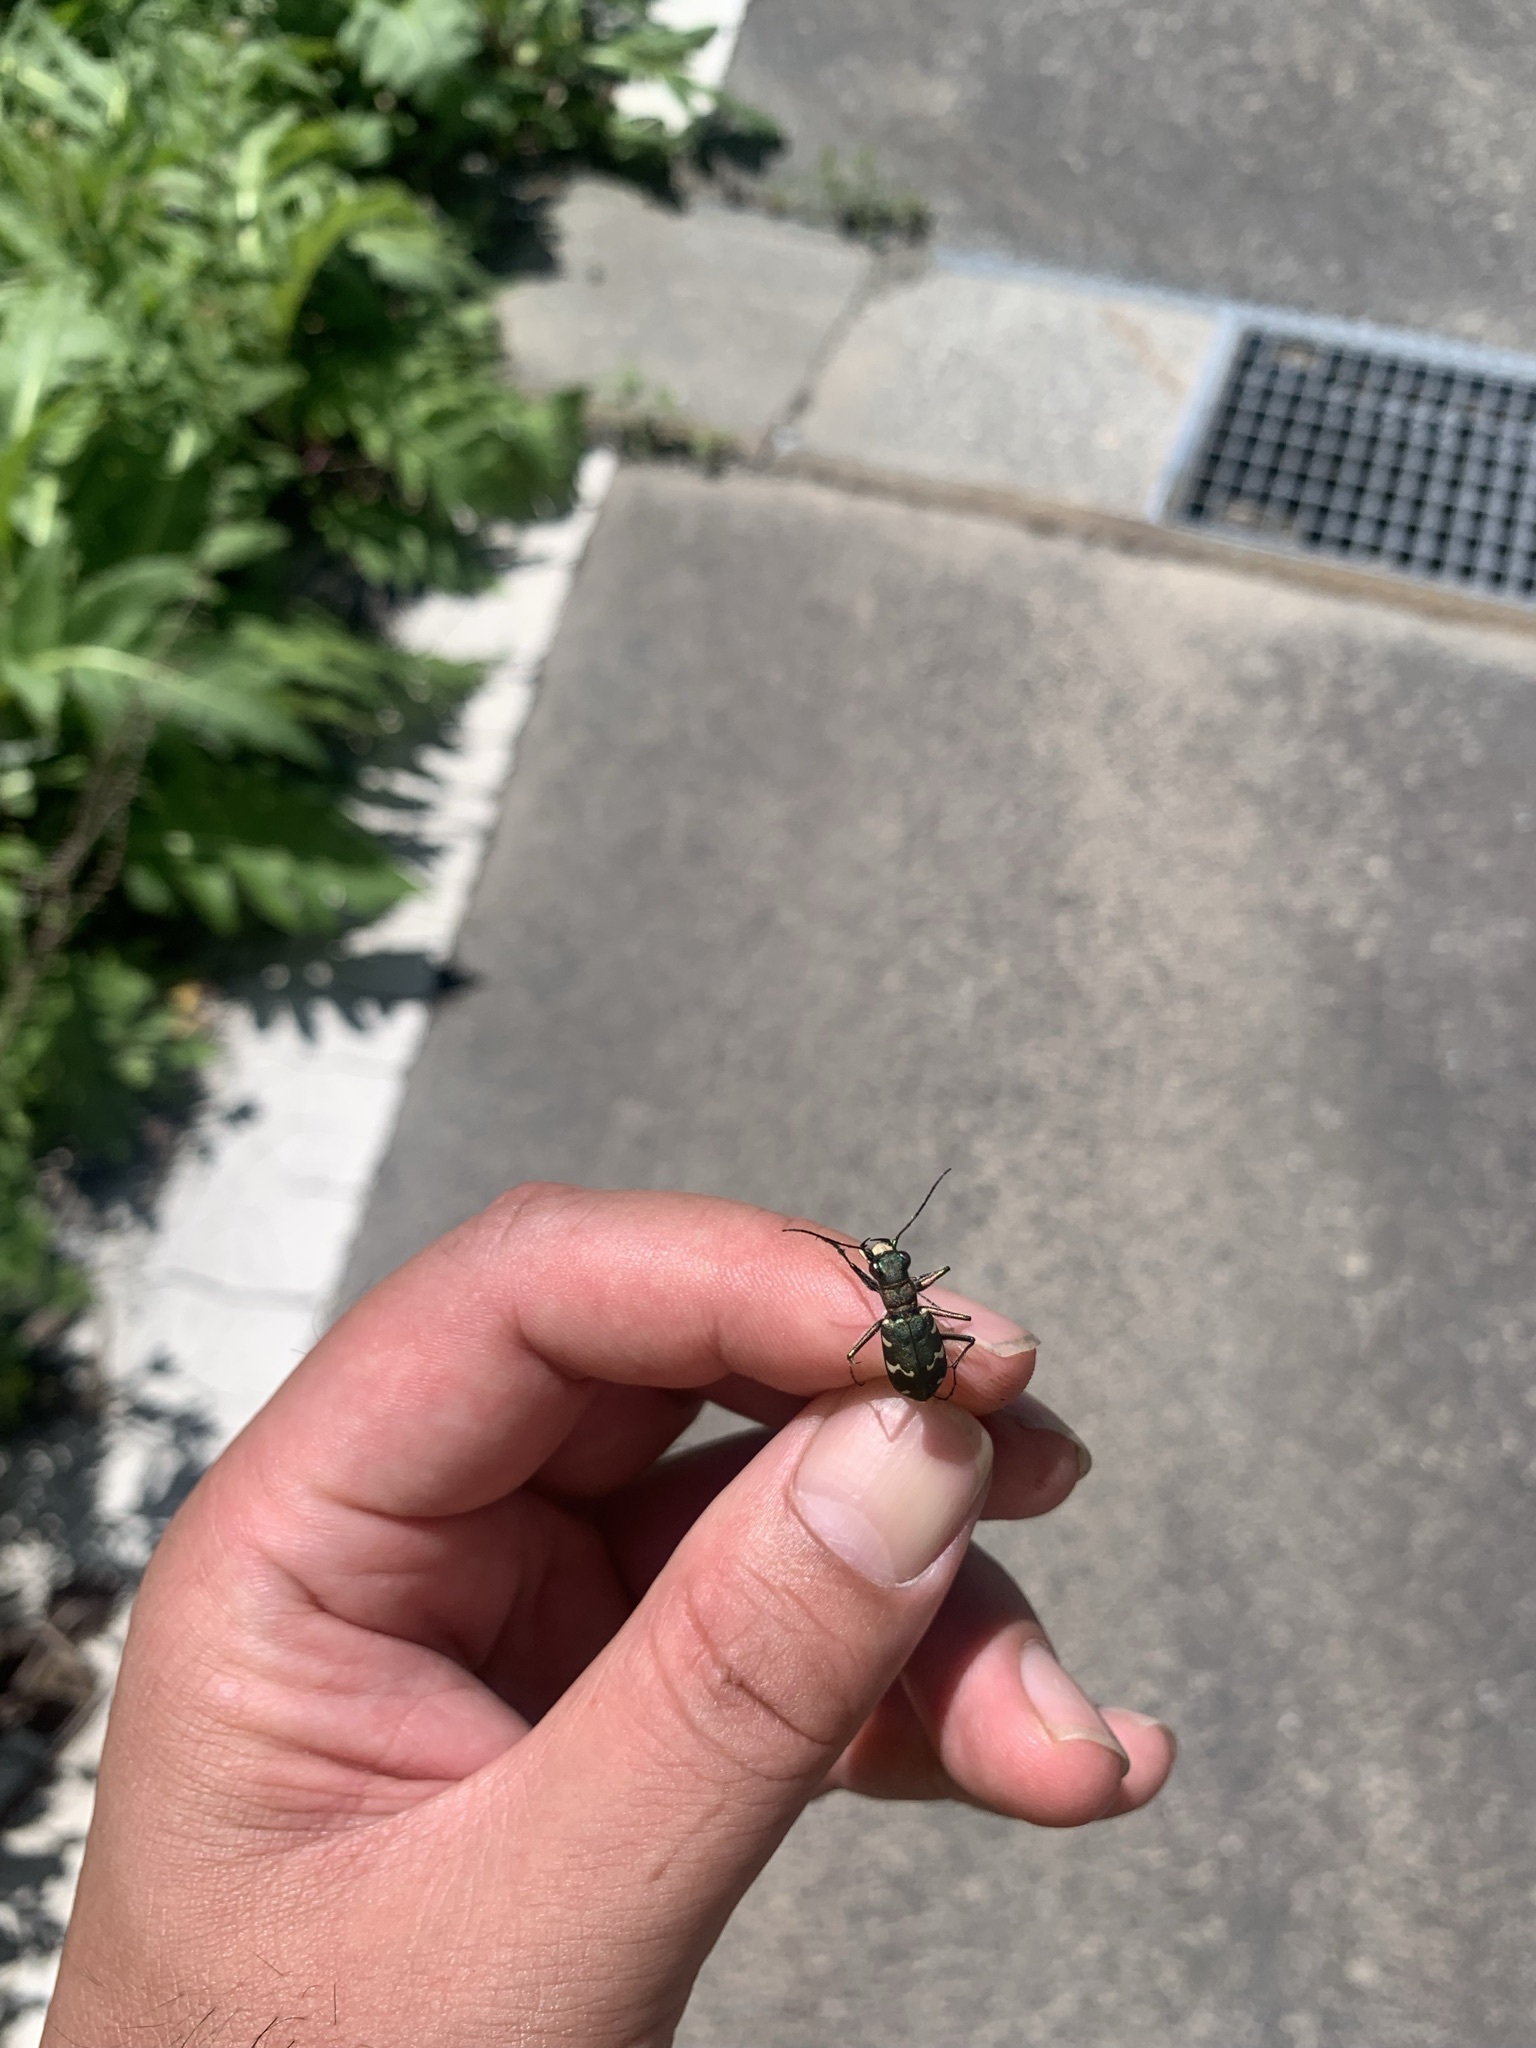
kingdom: Animalia
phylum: Arthropoda
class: Insecta
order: Coleoptera
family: Carabidae
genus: Cicindela
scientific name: Cicindela sachalinensis
